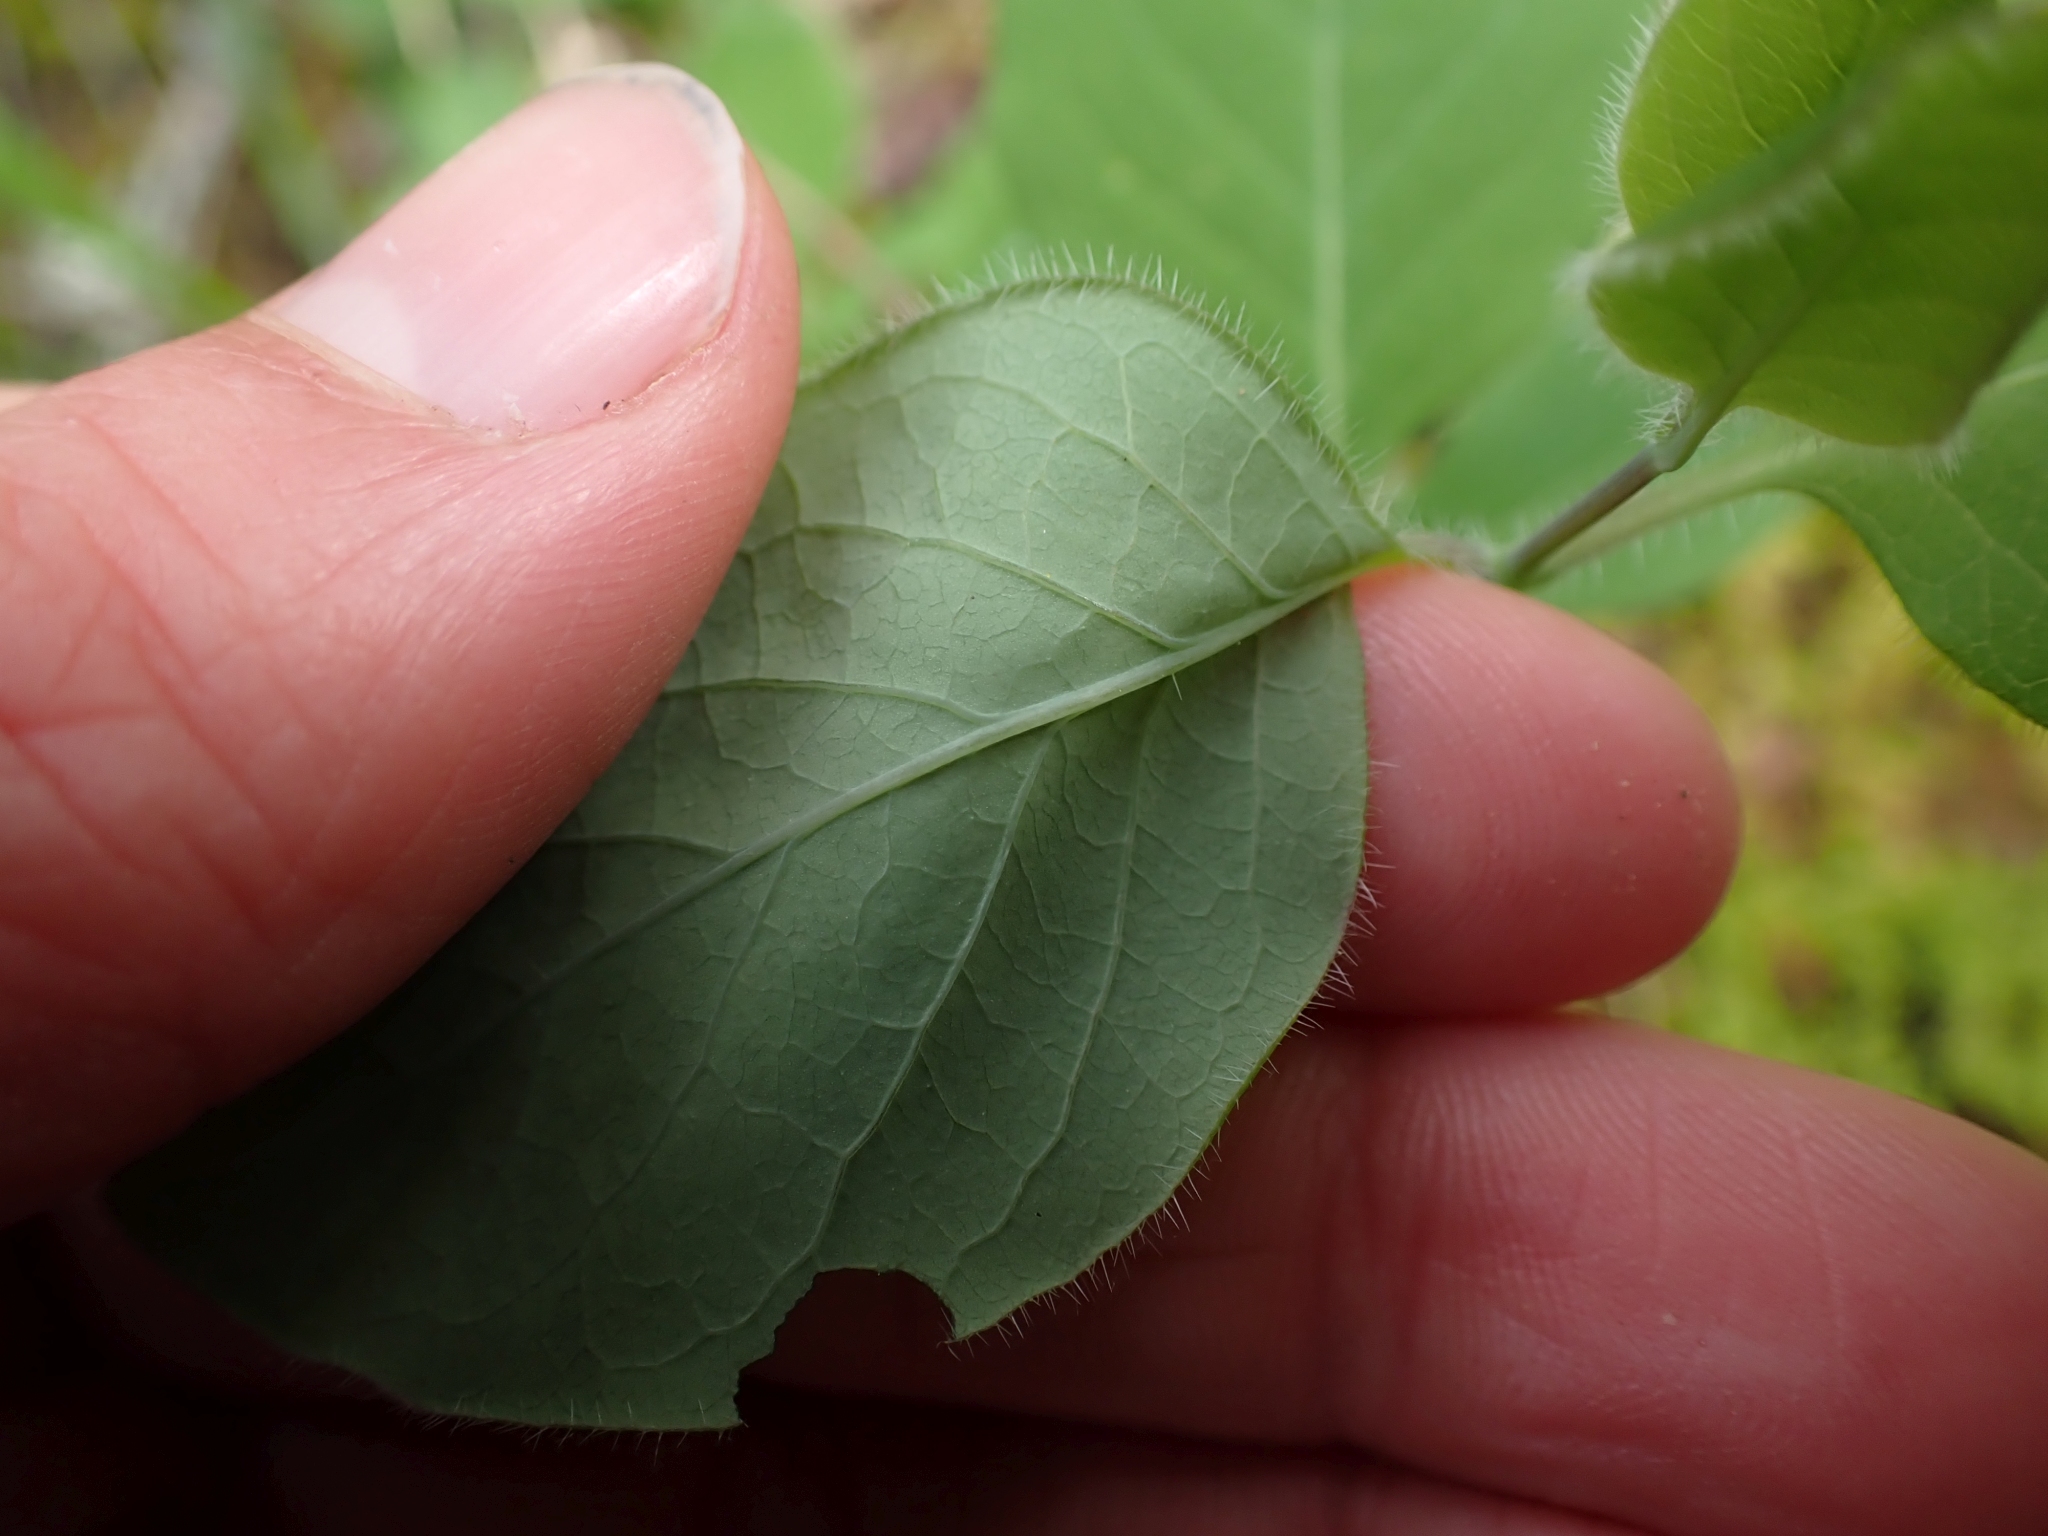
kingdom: Plantae
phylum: Tracheophyta
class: Magnoliopsida
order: Dipsacales
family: Caprifoliaceae
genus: Lonicera
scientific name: Lonicera ciliosa
